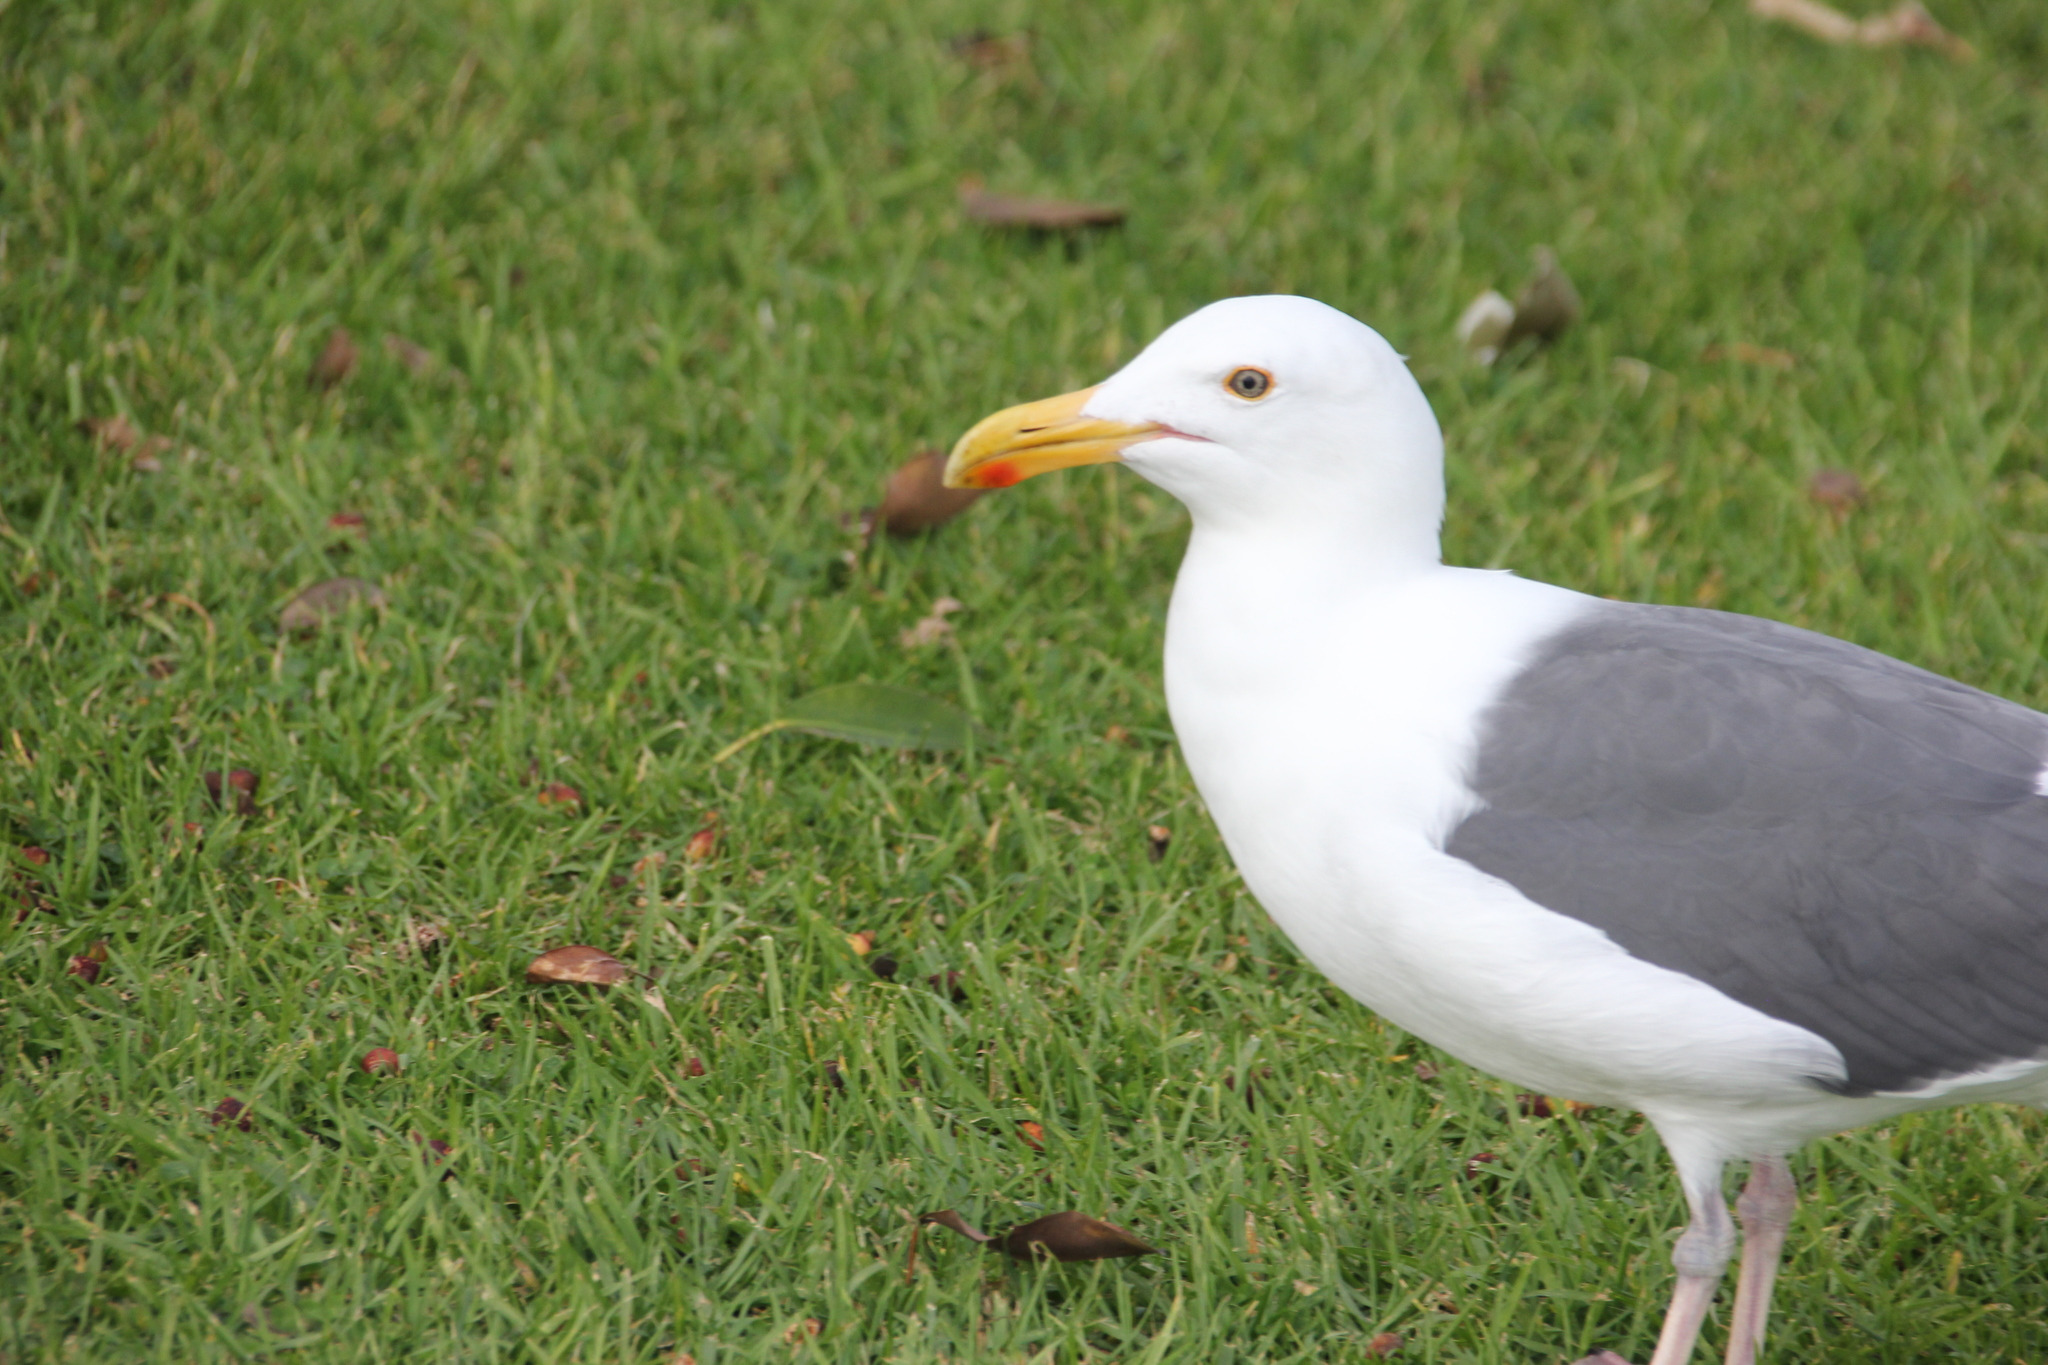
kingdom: Animalia
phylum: Chordata
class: Aves
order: Charadriiformes
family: Laridae
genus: Larus
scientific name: Larus occidentalis
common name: Western gull
